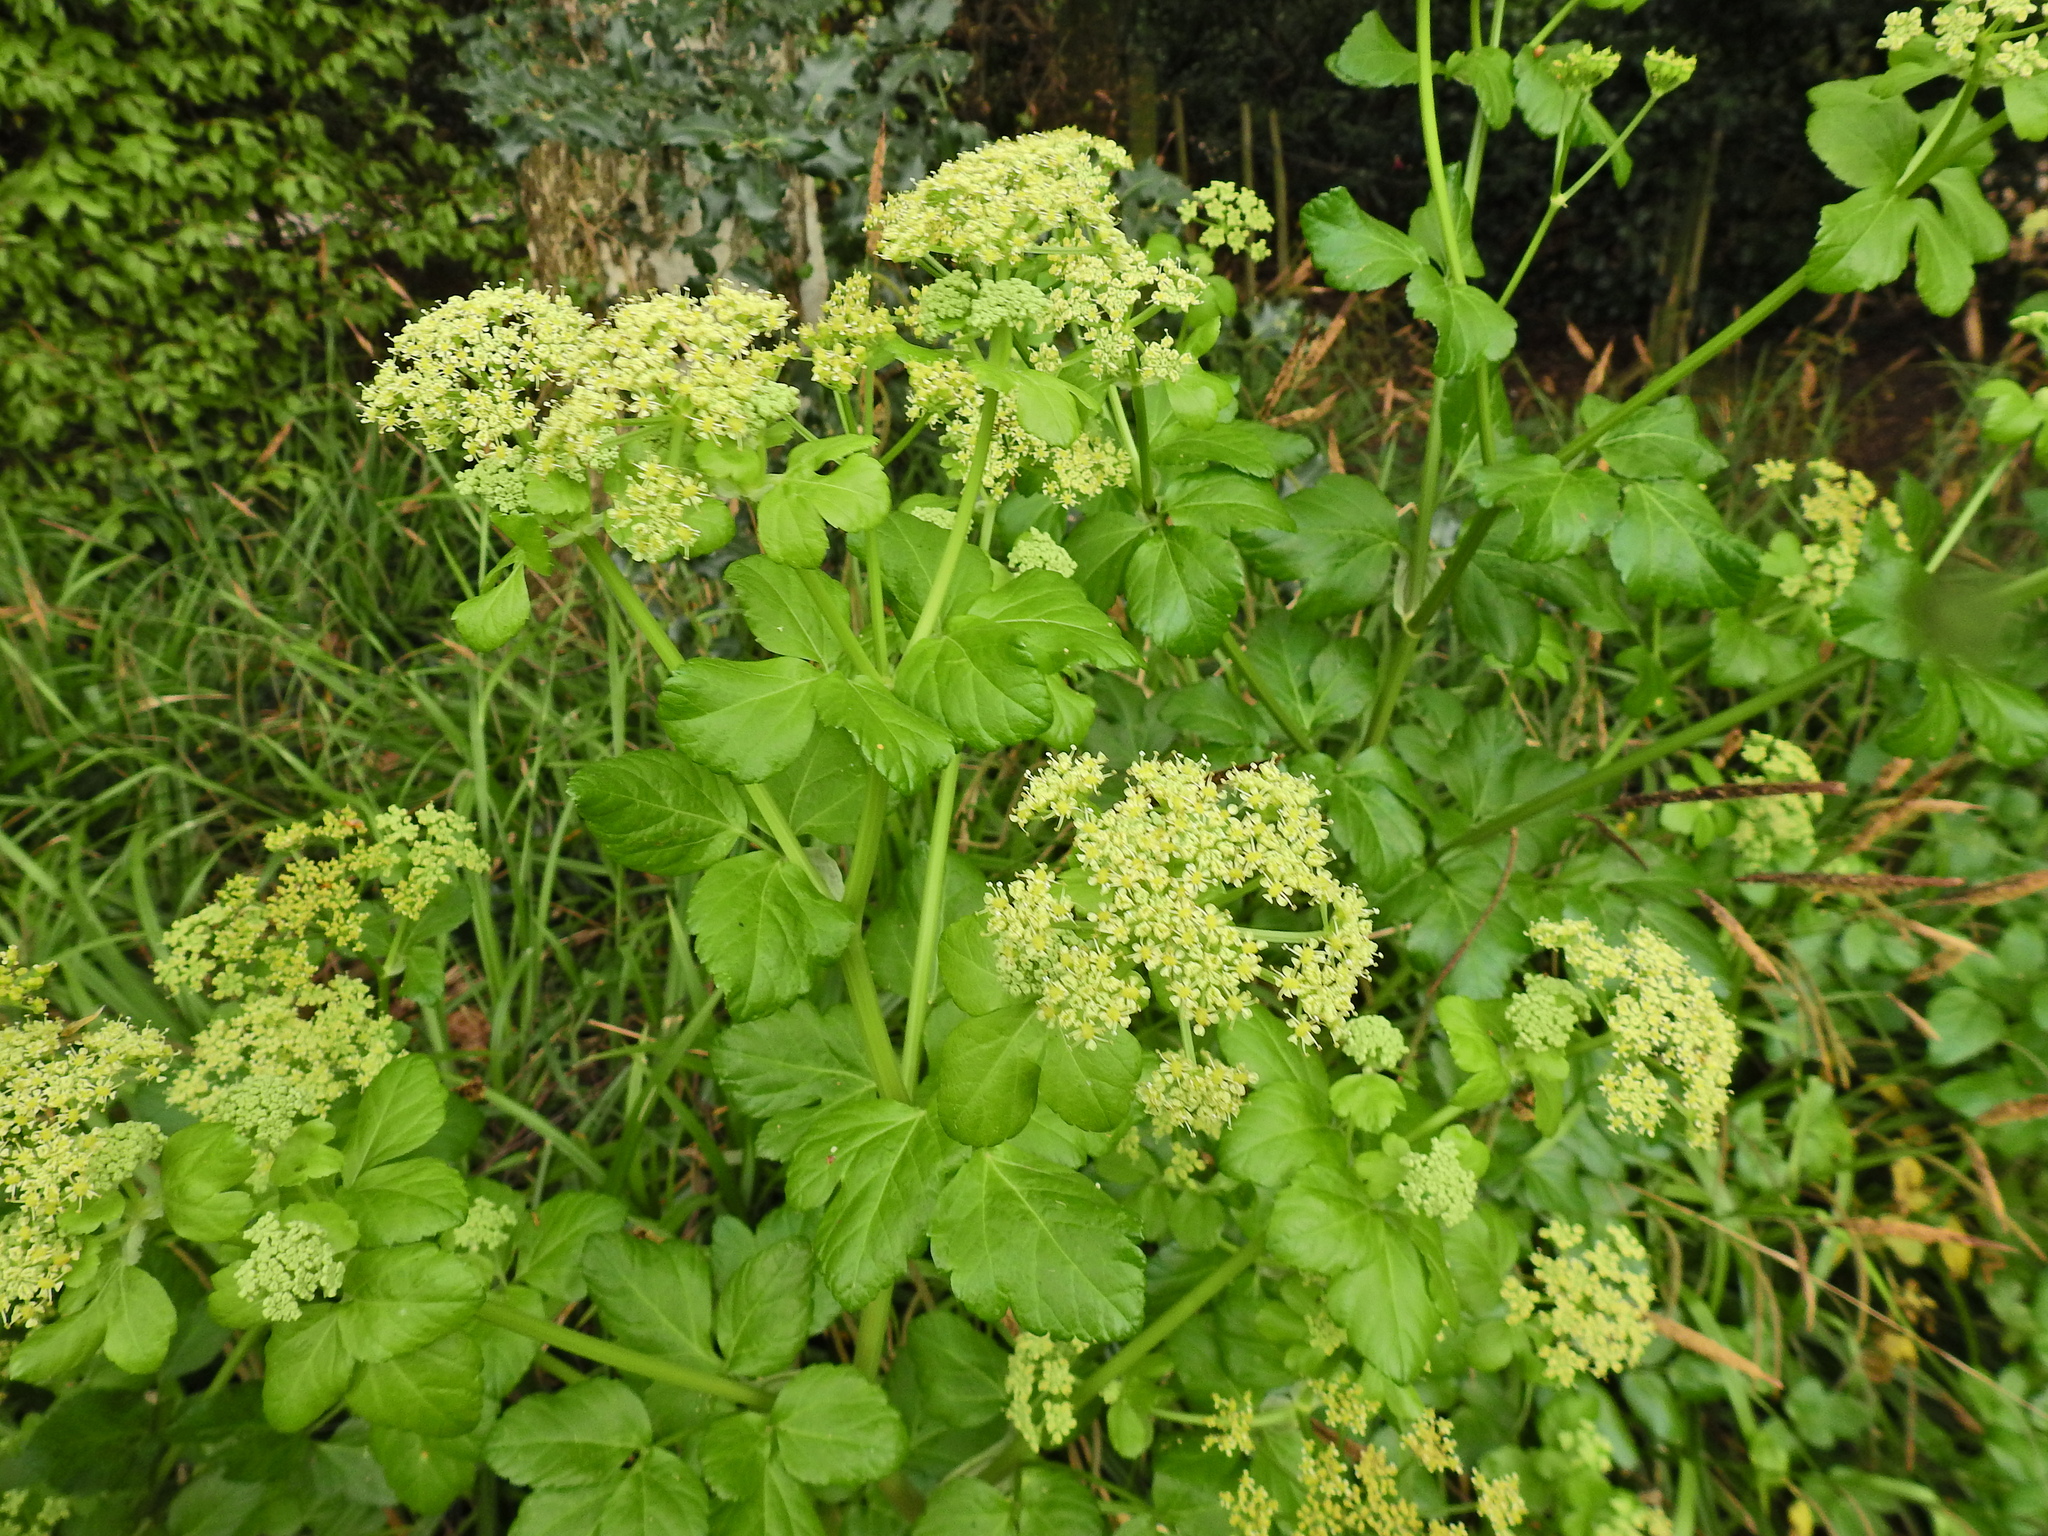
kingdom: Plantae
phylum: Tracheophyta
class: Magnoliopsida
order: Apiales
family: Apiaceae
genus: Smyrnium
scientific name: Smyrnium olusatrum
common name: Alexanders
